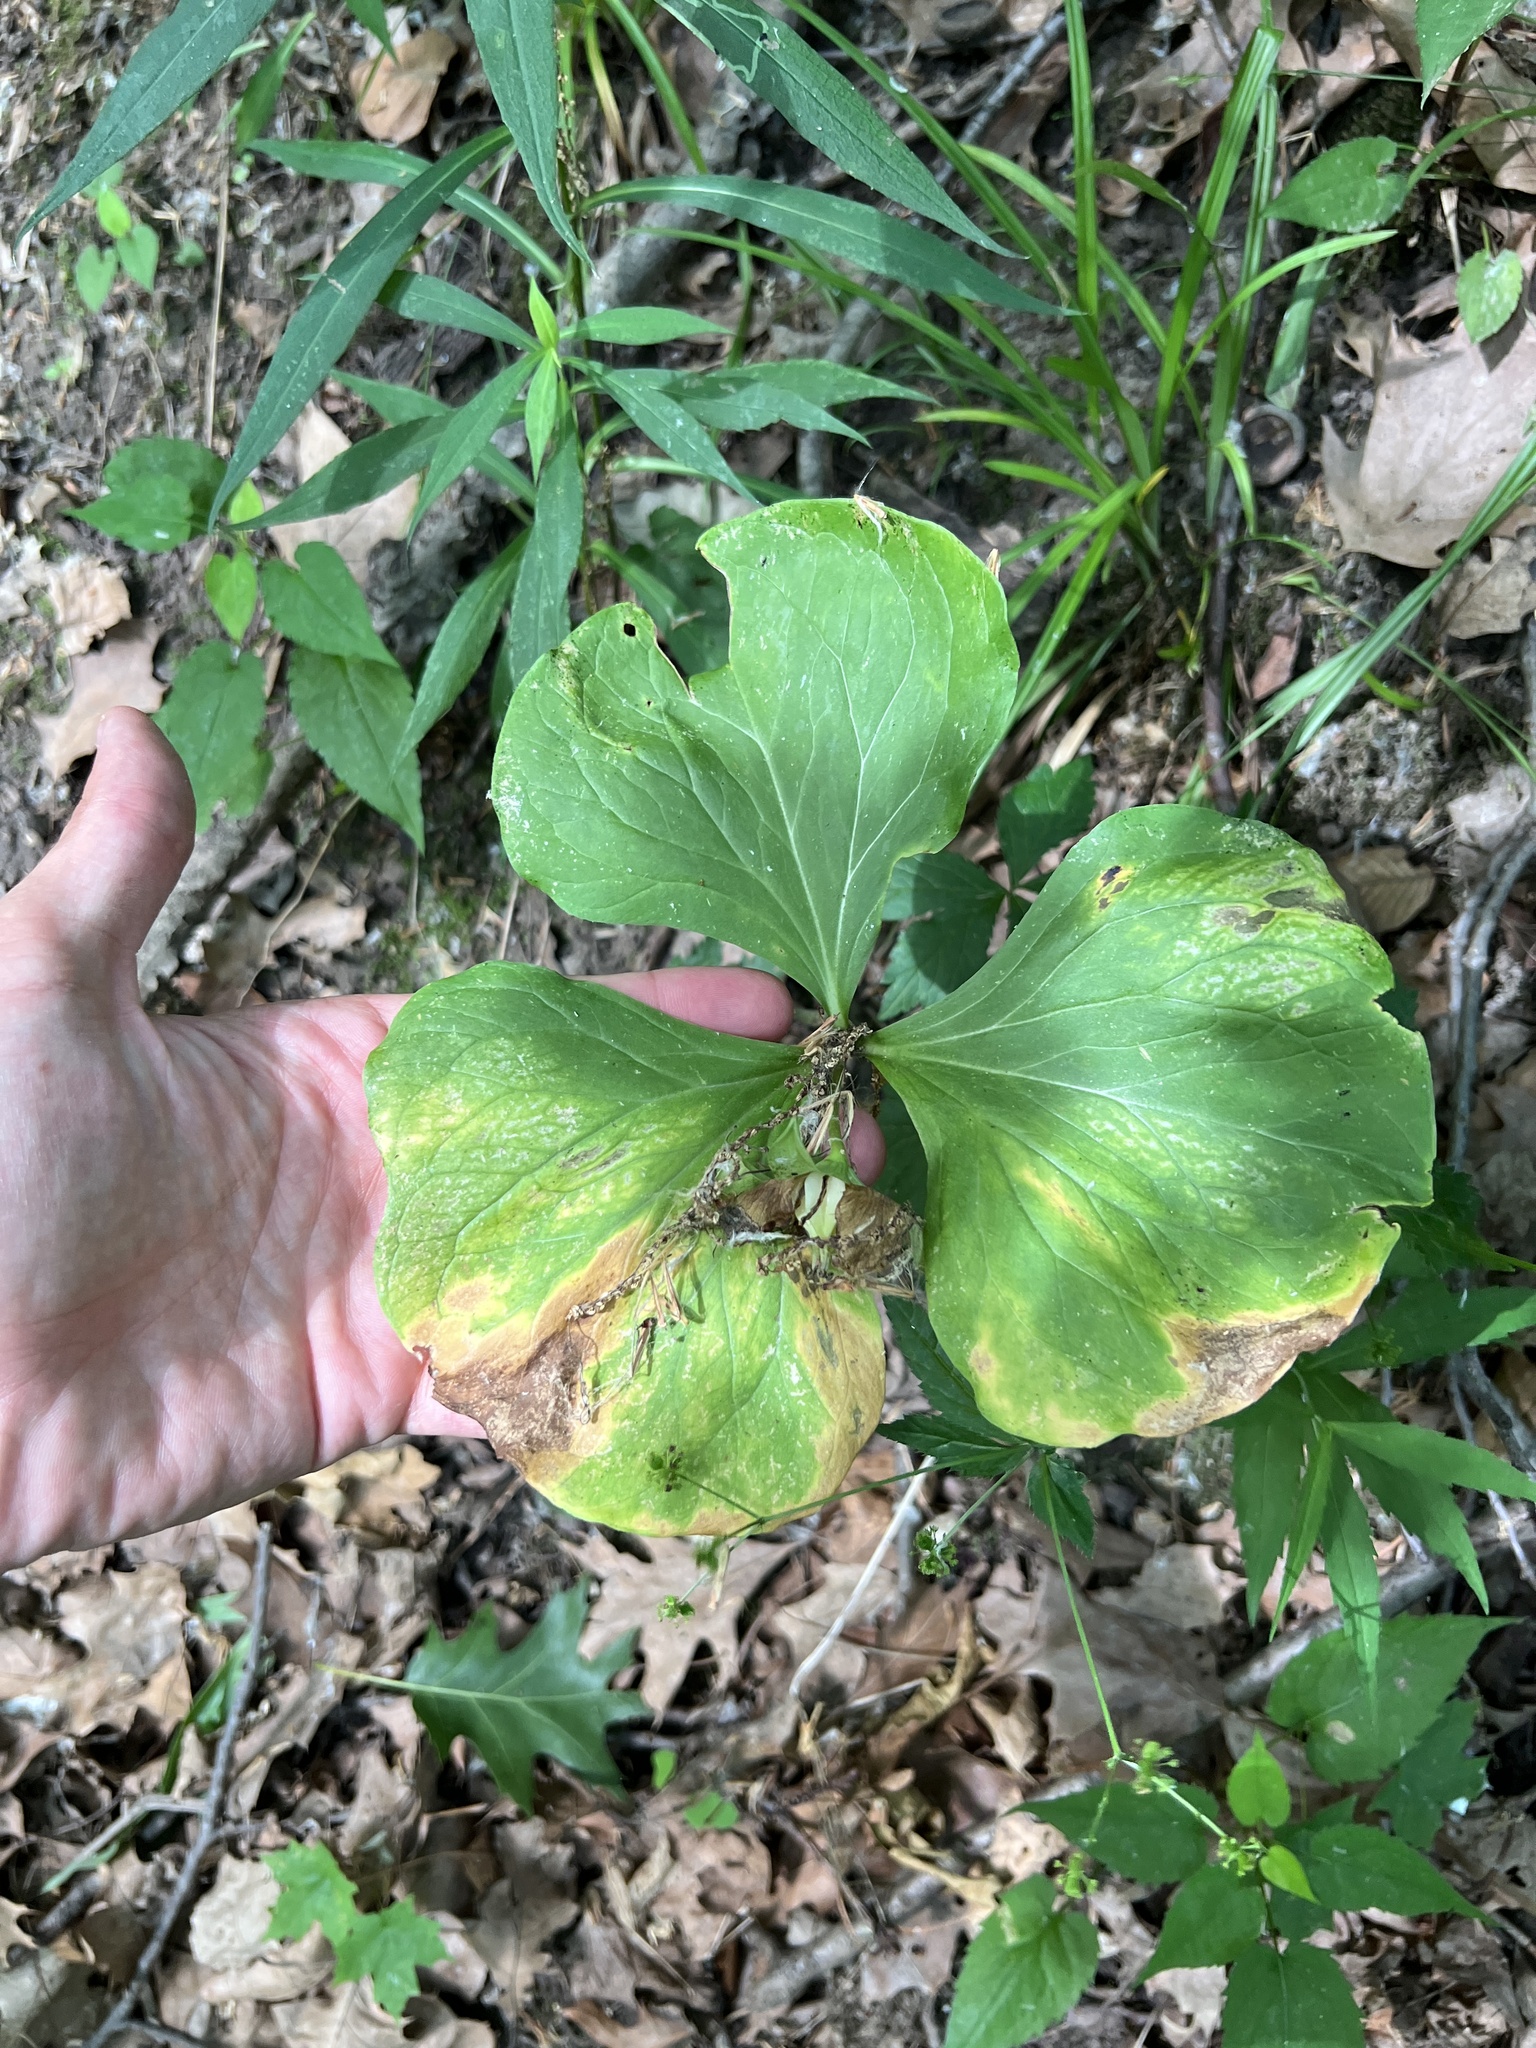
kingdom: Plantae
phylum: Tracheophyta
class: Liliopsida
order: Liliales
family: Melanthiaceae
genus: Trillium
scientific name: Trillium flexipes
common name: Drooping trillium
